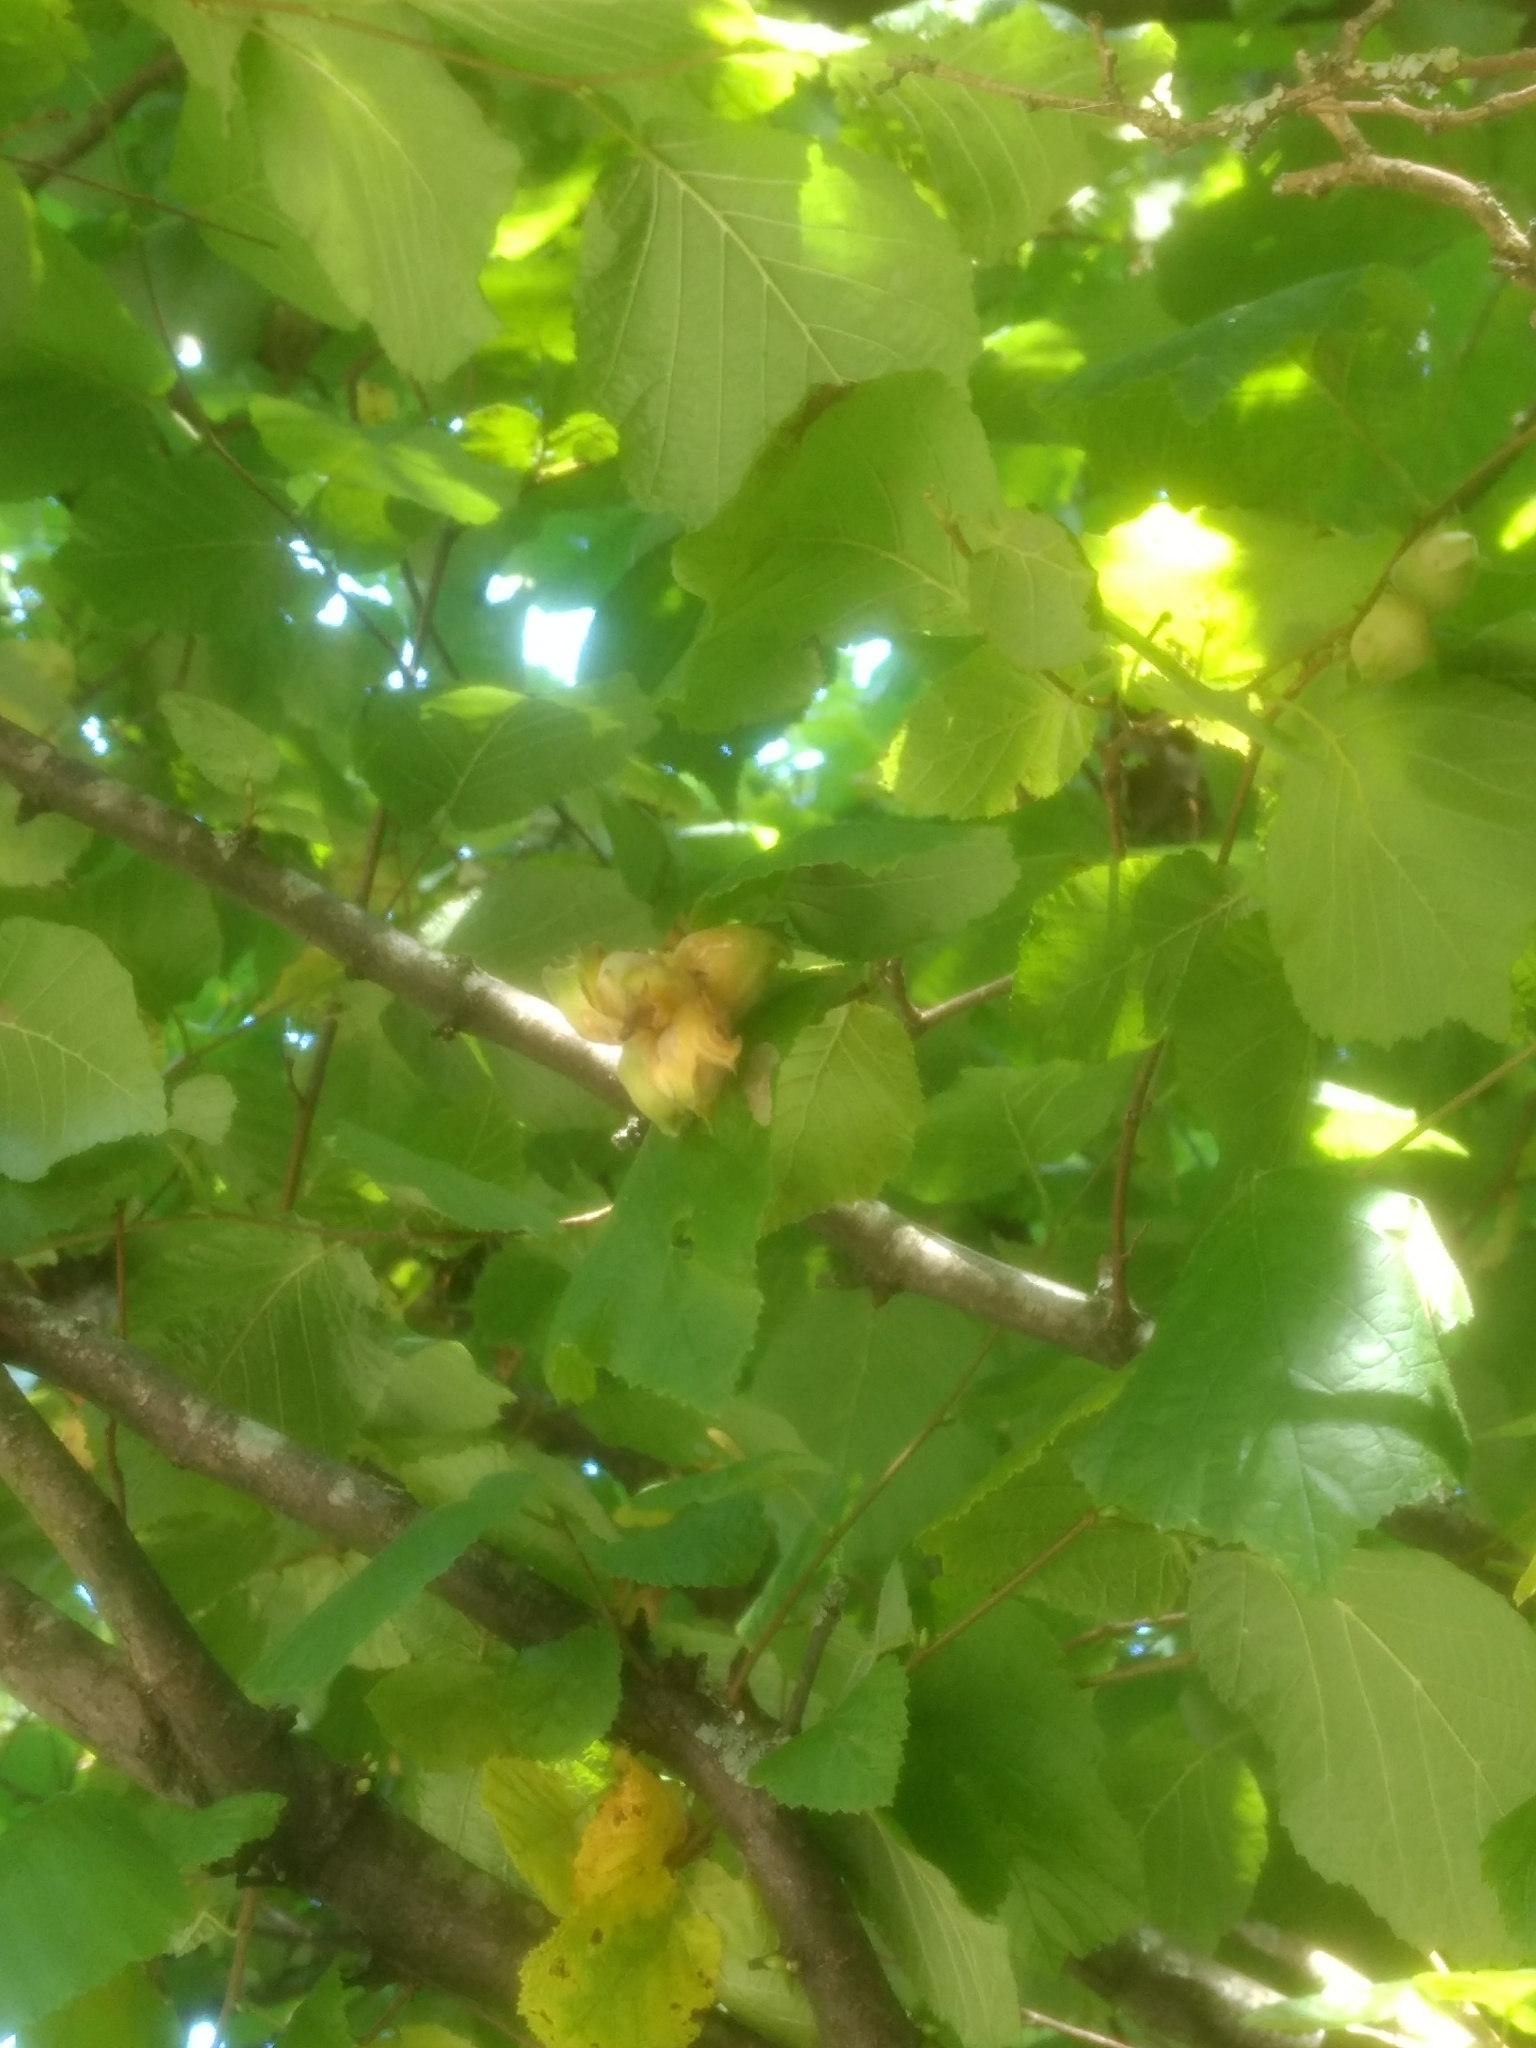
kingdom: Plantae
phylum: Tracheophyta
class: Magnoliopsida
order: Fagales
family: Betulaceae
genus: Corylus
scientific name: Corylus avellana
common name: European hazel
